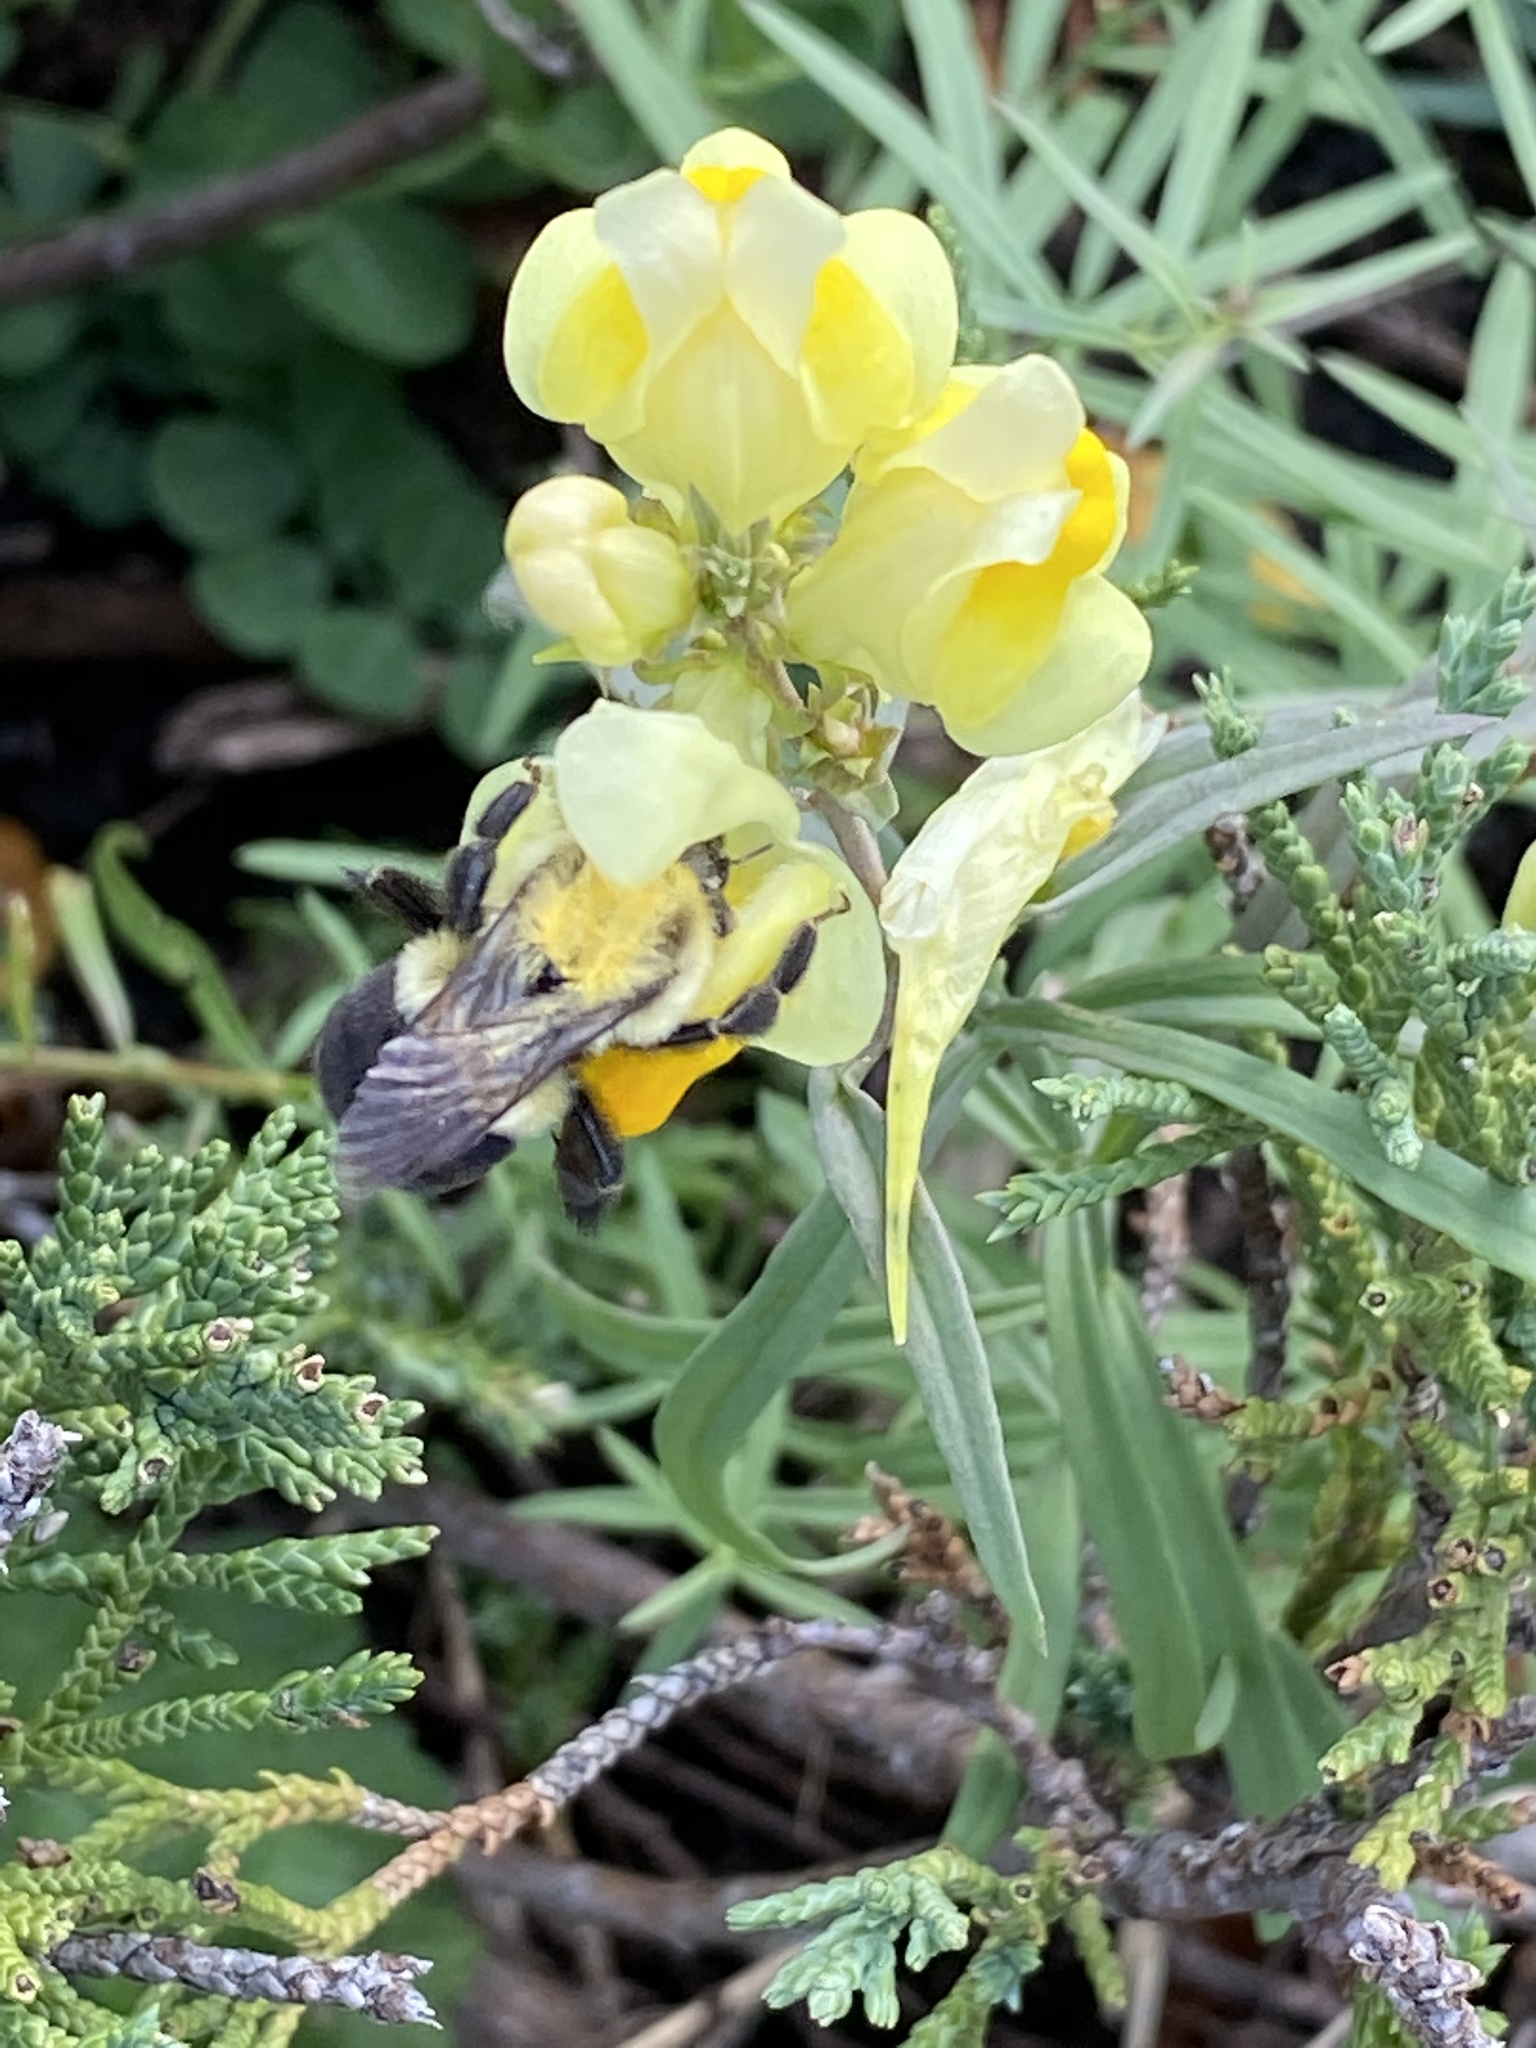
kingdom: Animalia
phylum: Arthropoda
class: Insecta
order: Hymenoptera
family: Apidae
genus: Bombus
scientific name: Bombus impatiens
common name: Common eastern bumble bee
